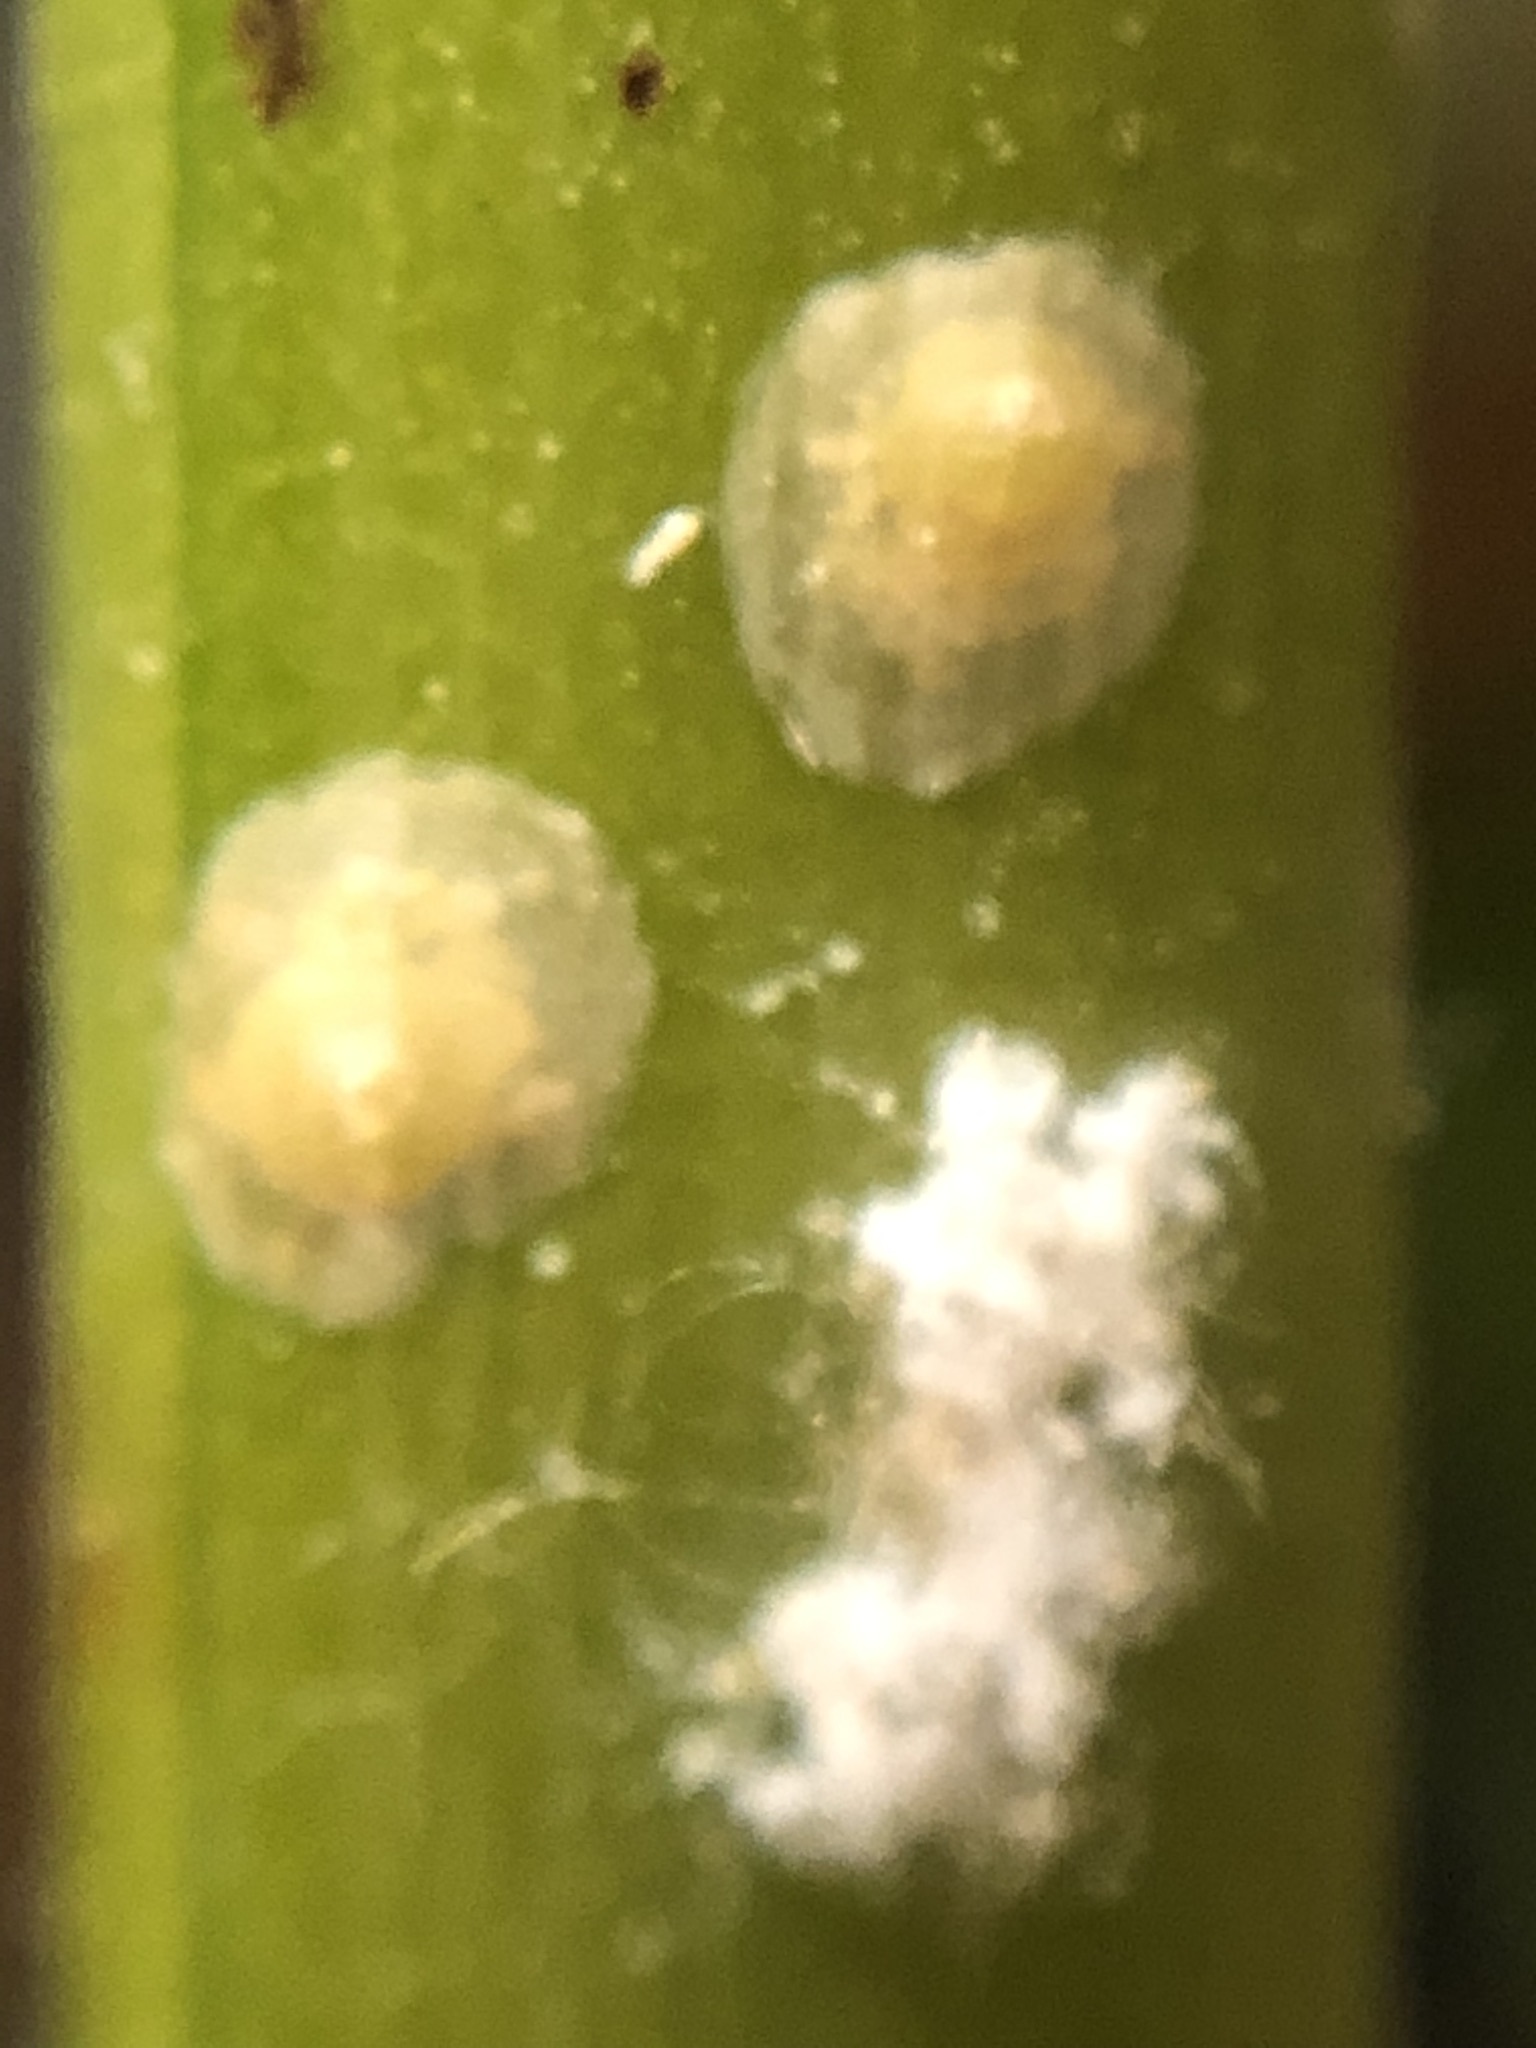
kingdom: Animalia
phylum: Arthropoda
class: Insecta
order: Hemiptera
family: Diaspididae
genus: Aspidiotus
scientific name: Aspidiotus destructor
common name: Coconut scale
